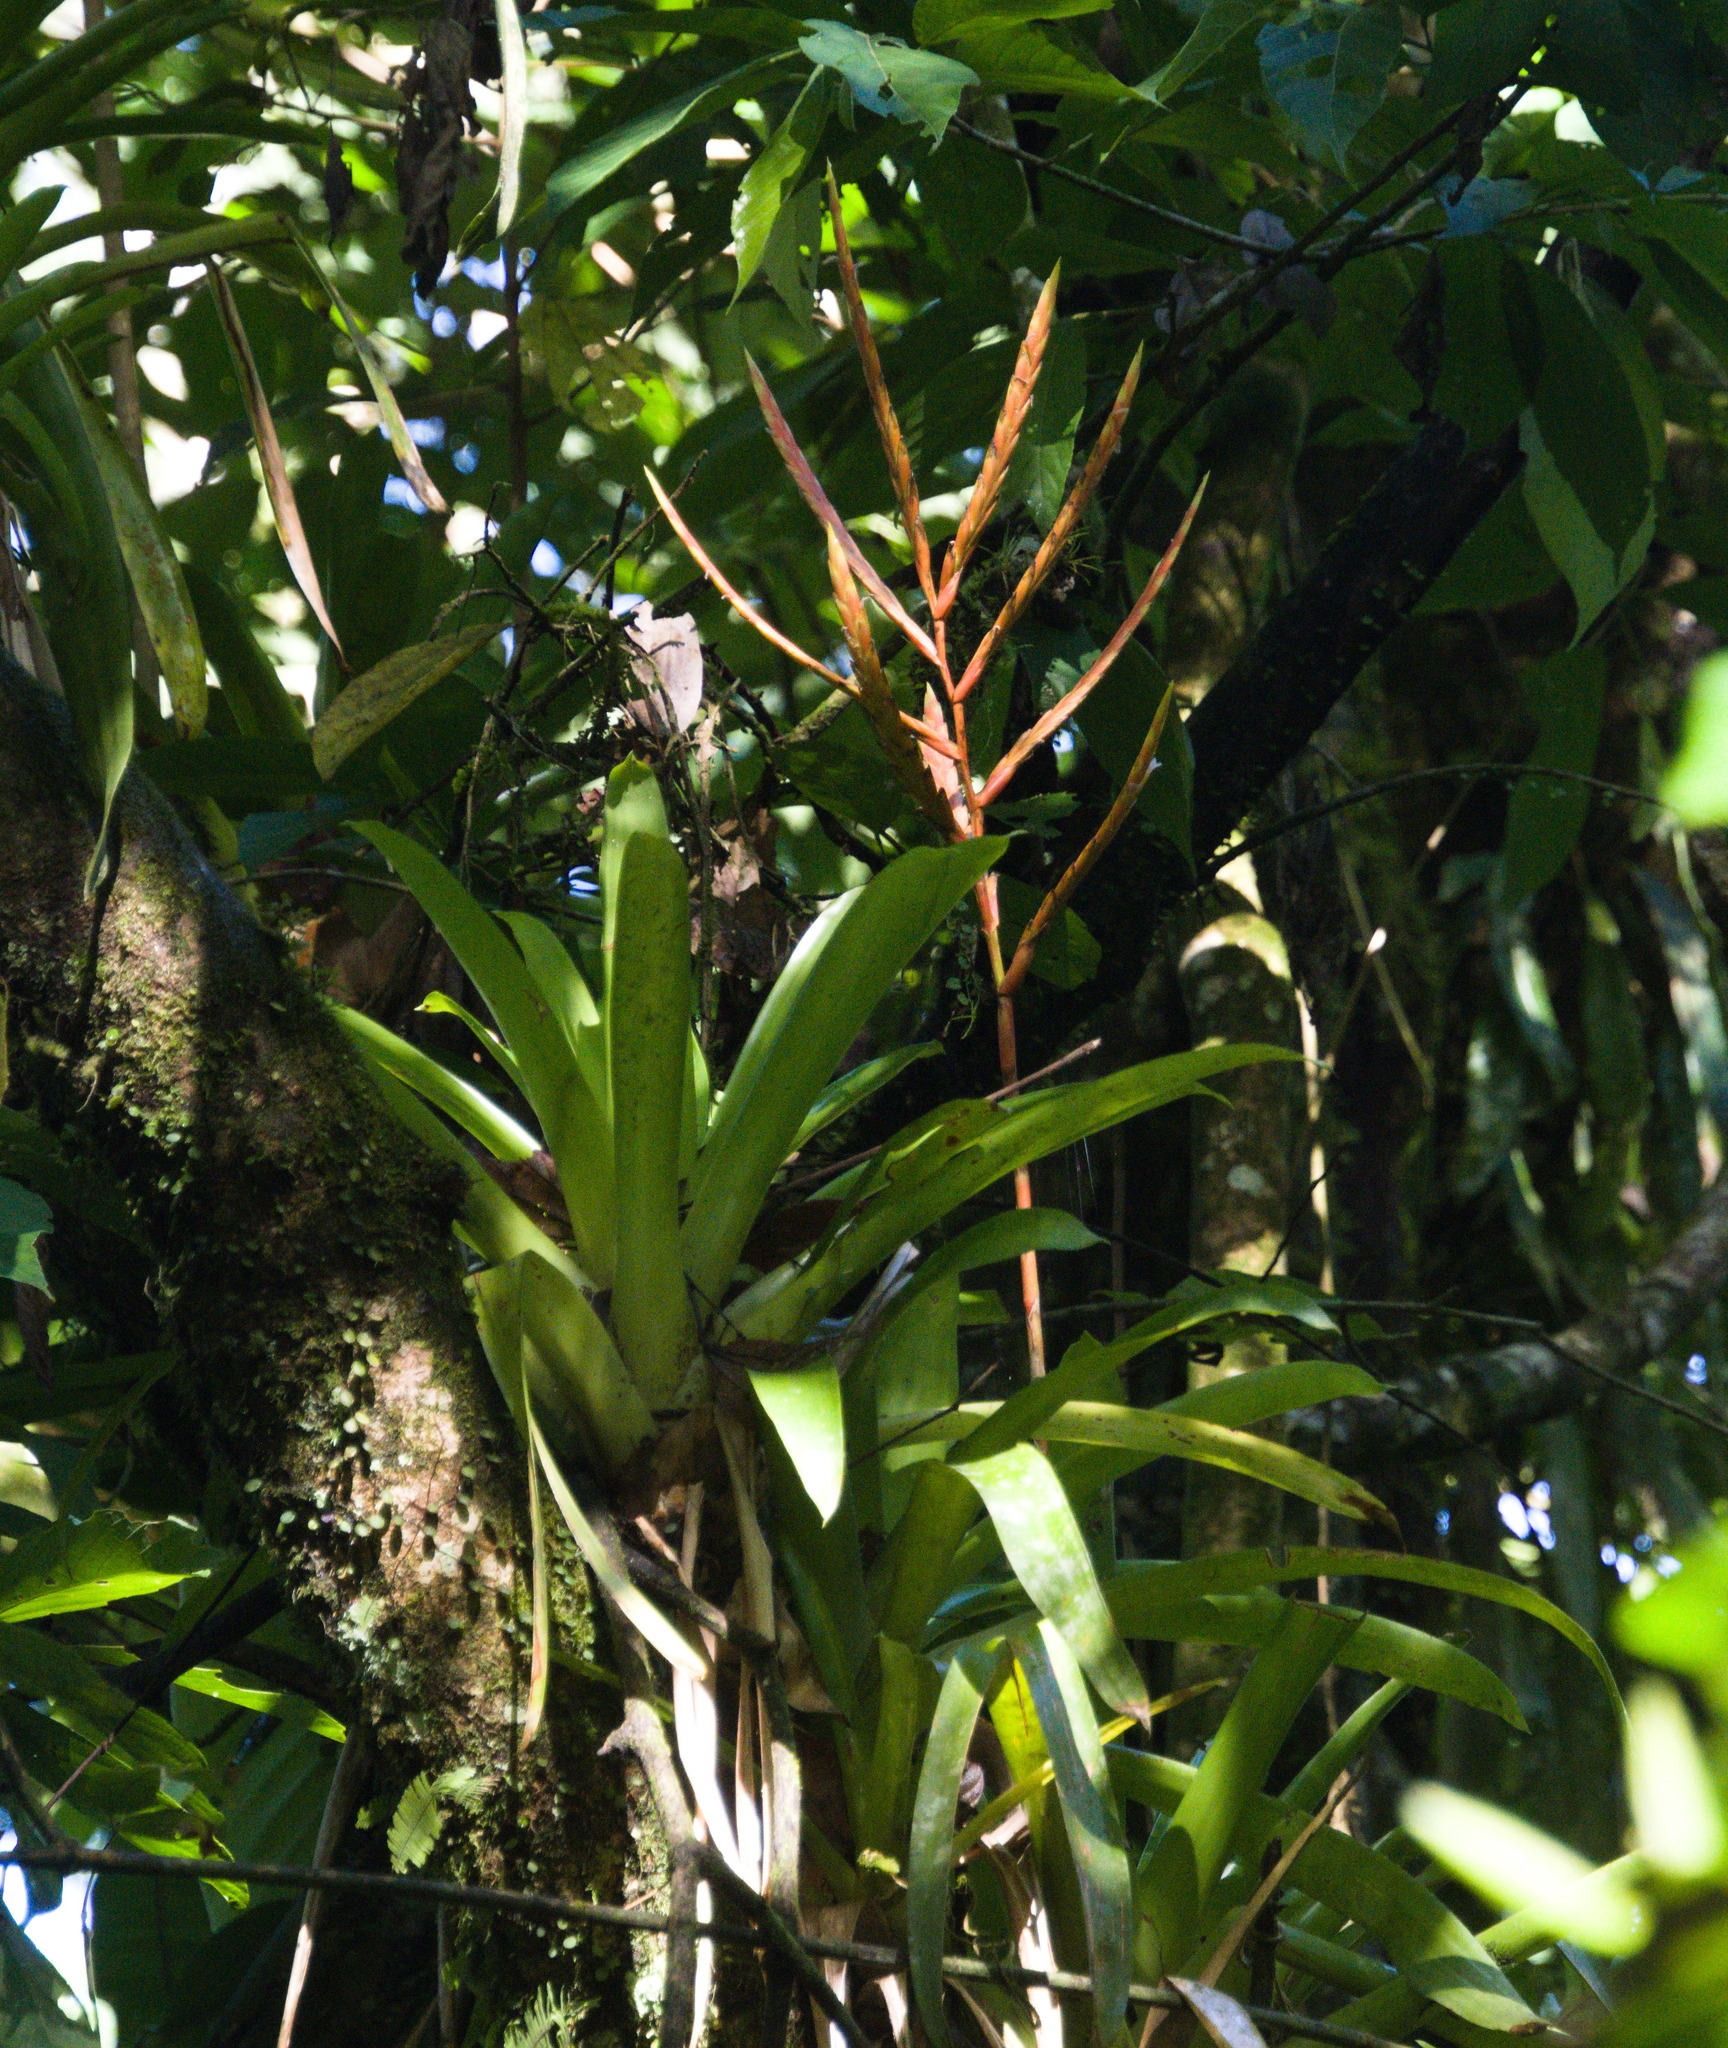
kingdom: Plantae
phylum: Tracheophyta
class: Liliopsida
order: Poales
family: Bromeliaceae
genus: Vriesea
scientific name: Vriesea rubra
